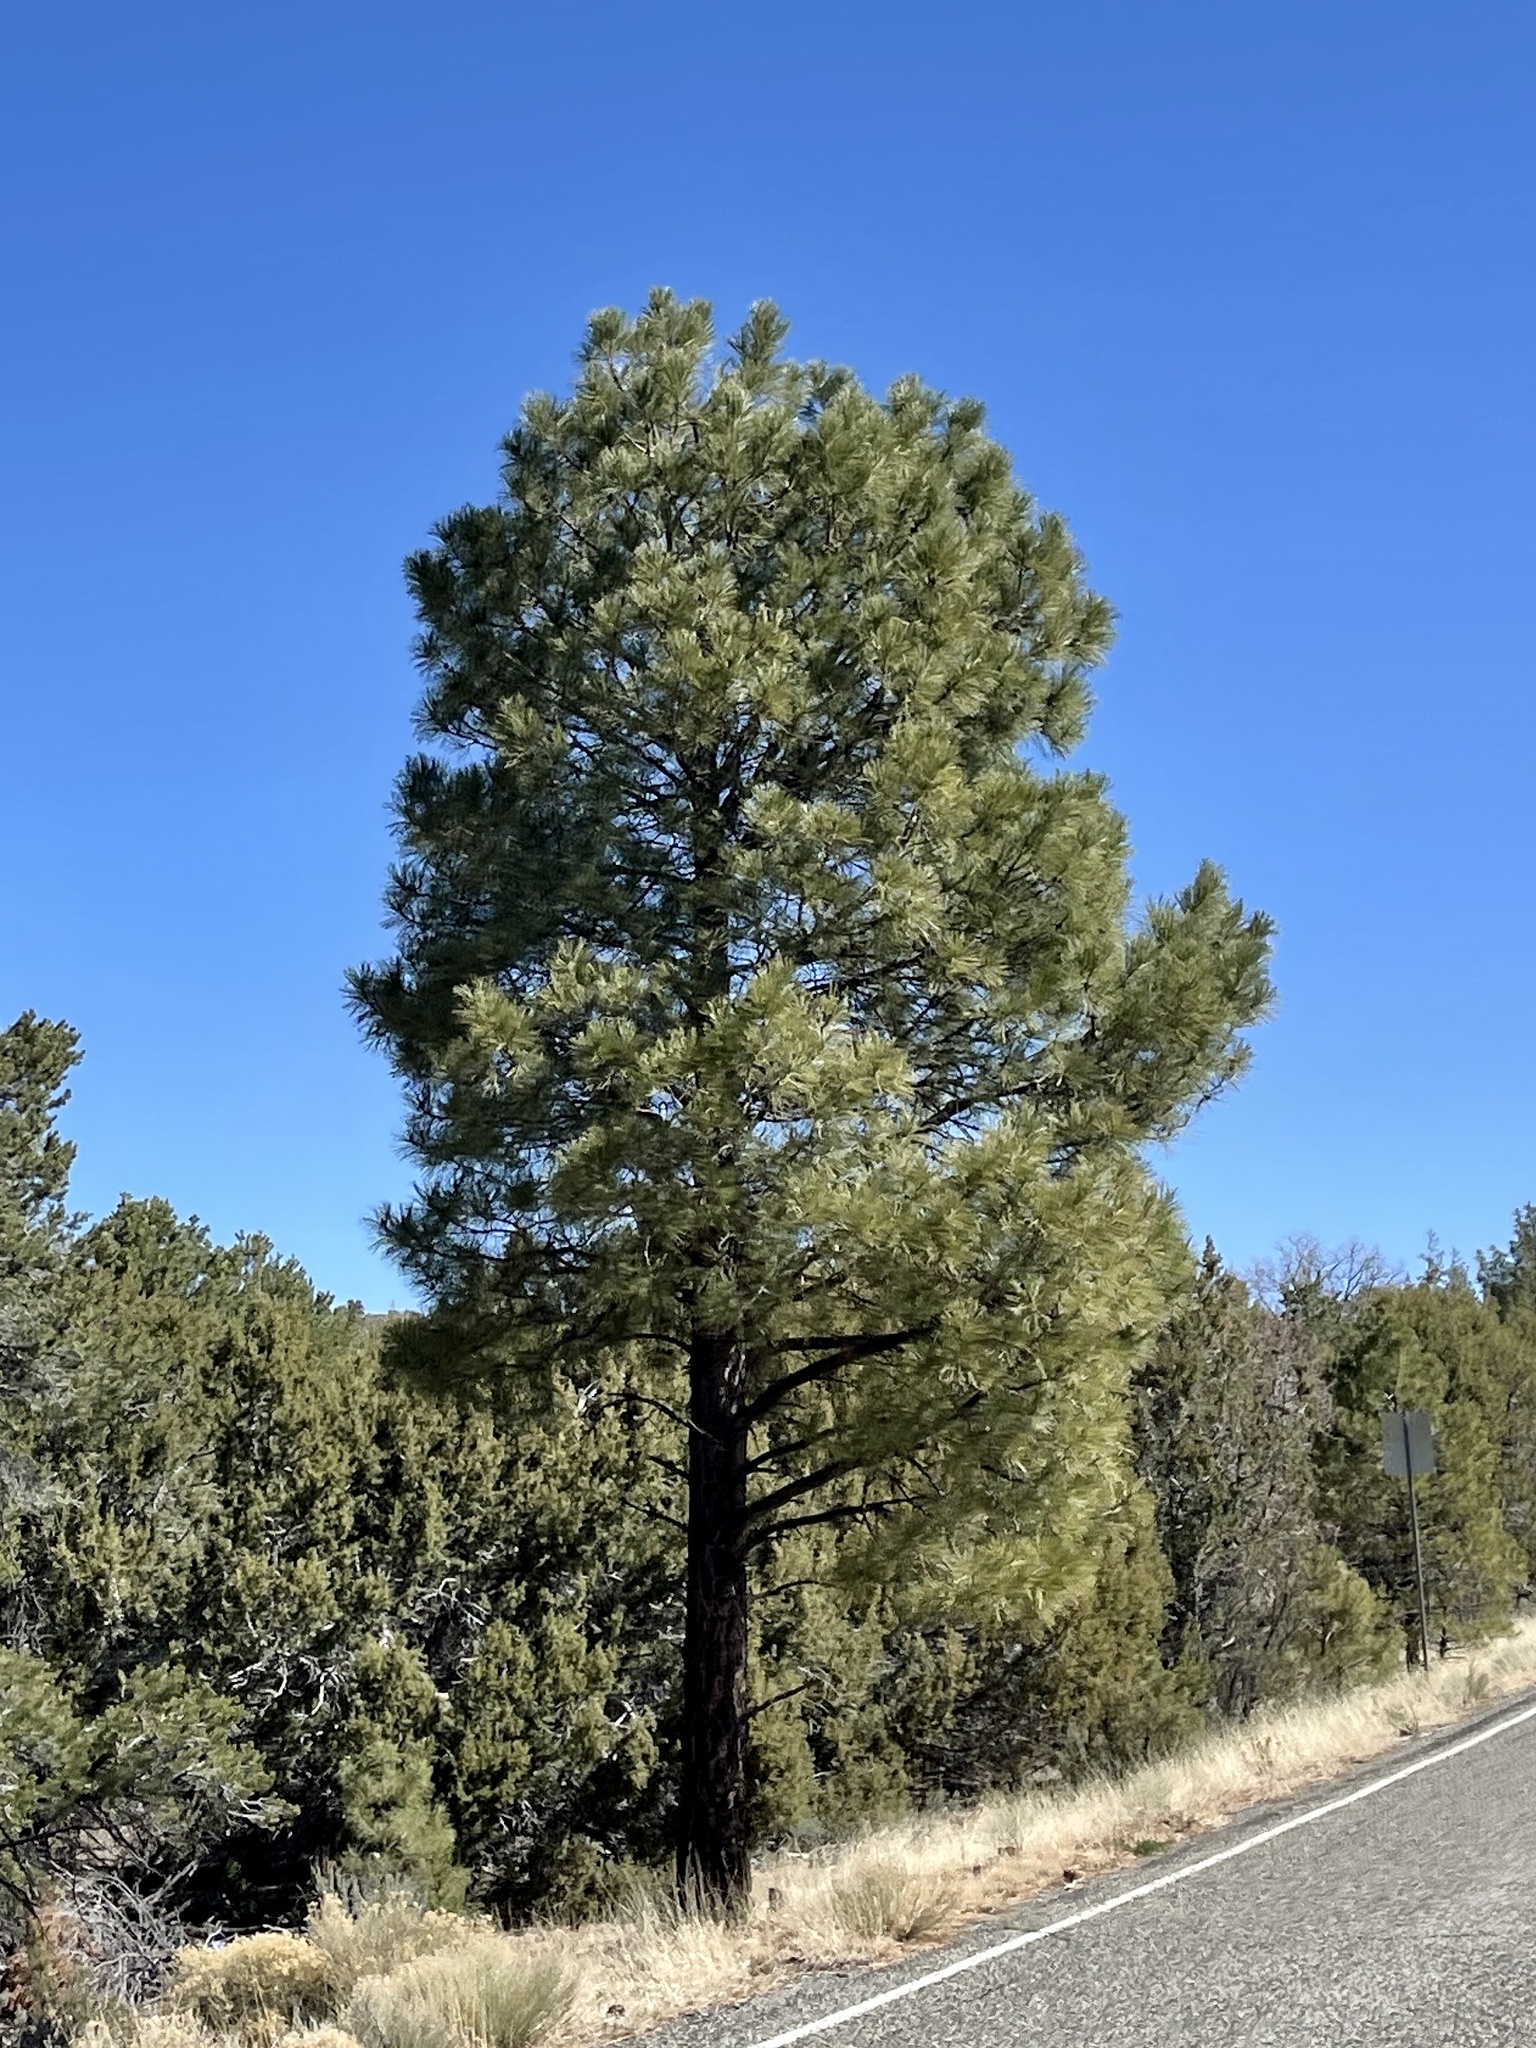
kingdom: Plantae
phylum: Tracheophyta
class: Pinopsida
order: Pinales
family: Pinaceae
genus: Pinus
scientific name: Pinus ponderosa
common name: Western yellow-pine
